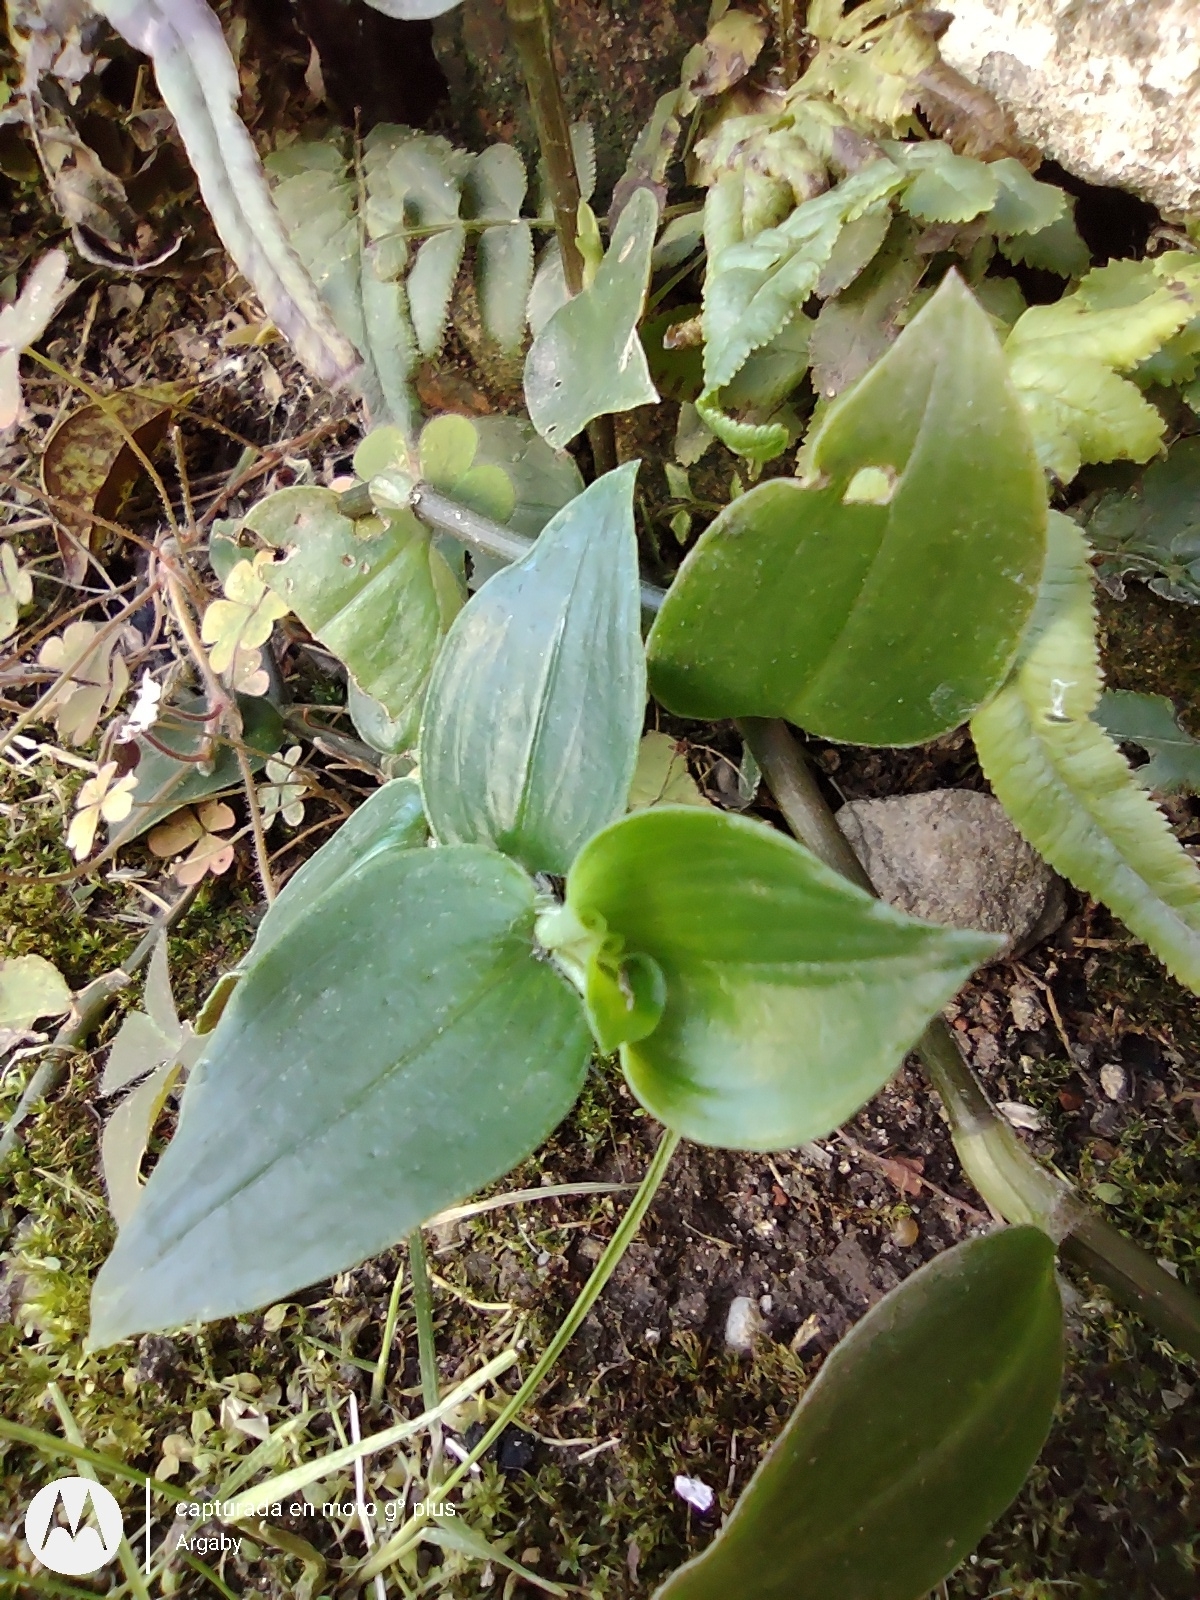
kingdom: Plantae
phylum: Tracheophyta
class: Liliopsida
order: Commelinales
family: Commelinaceae
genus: Tradescantia
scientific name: Tradescantia fluminensis
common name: Wandering-jew
